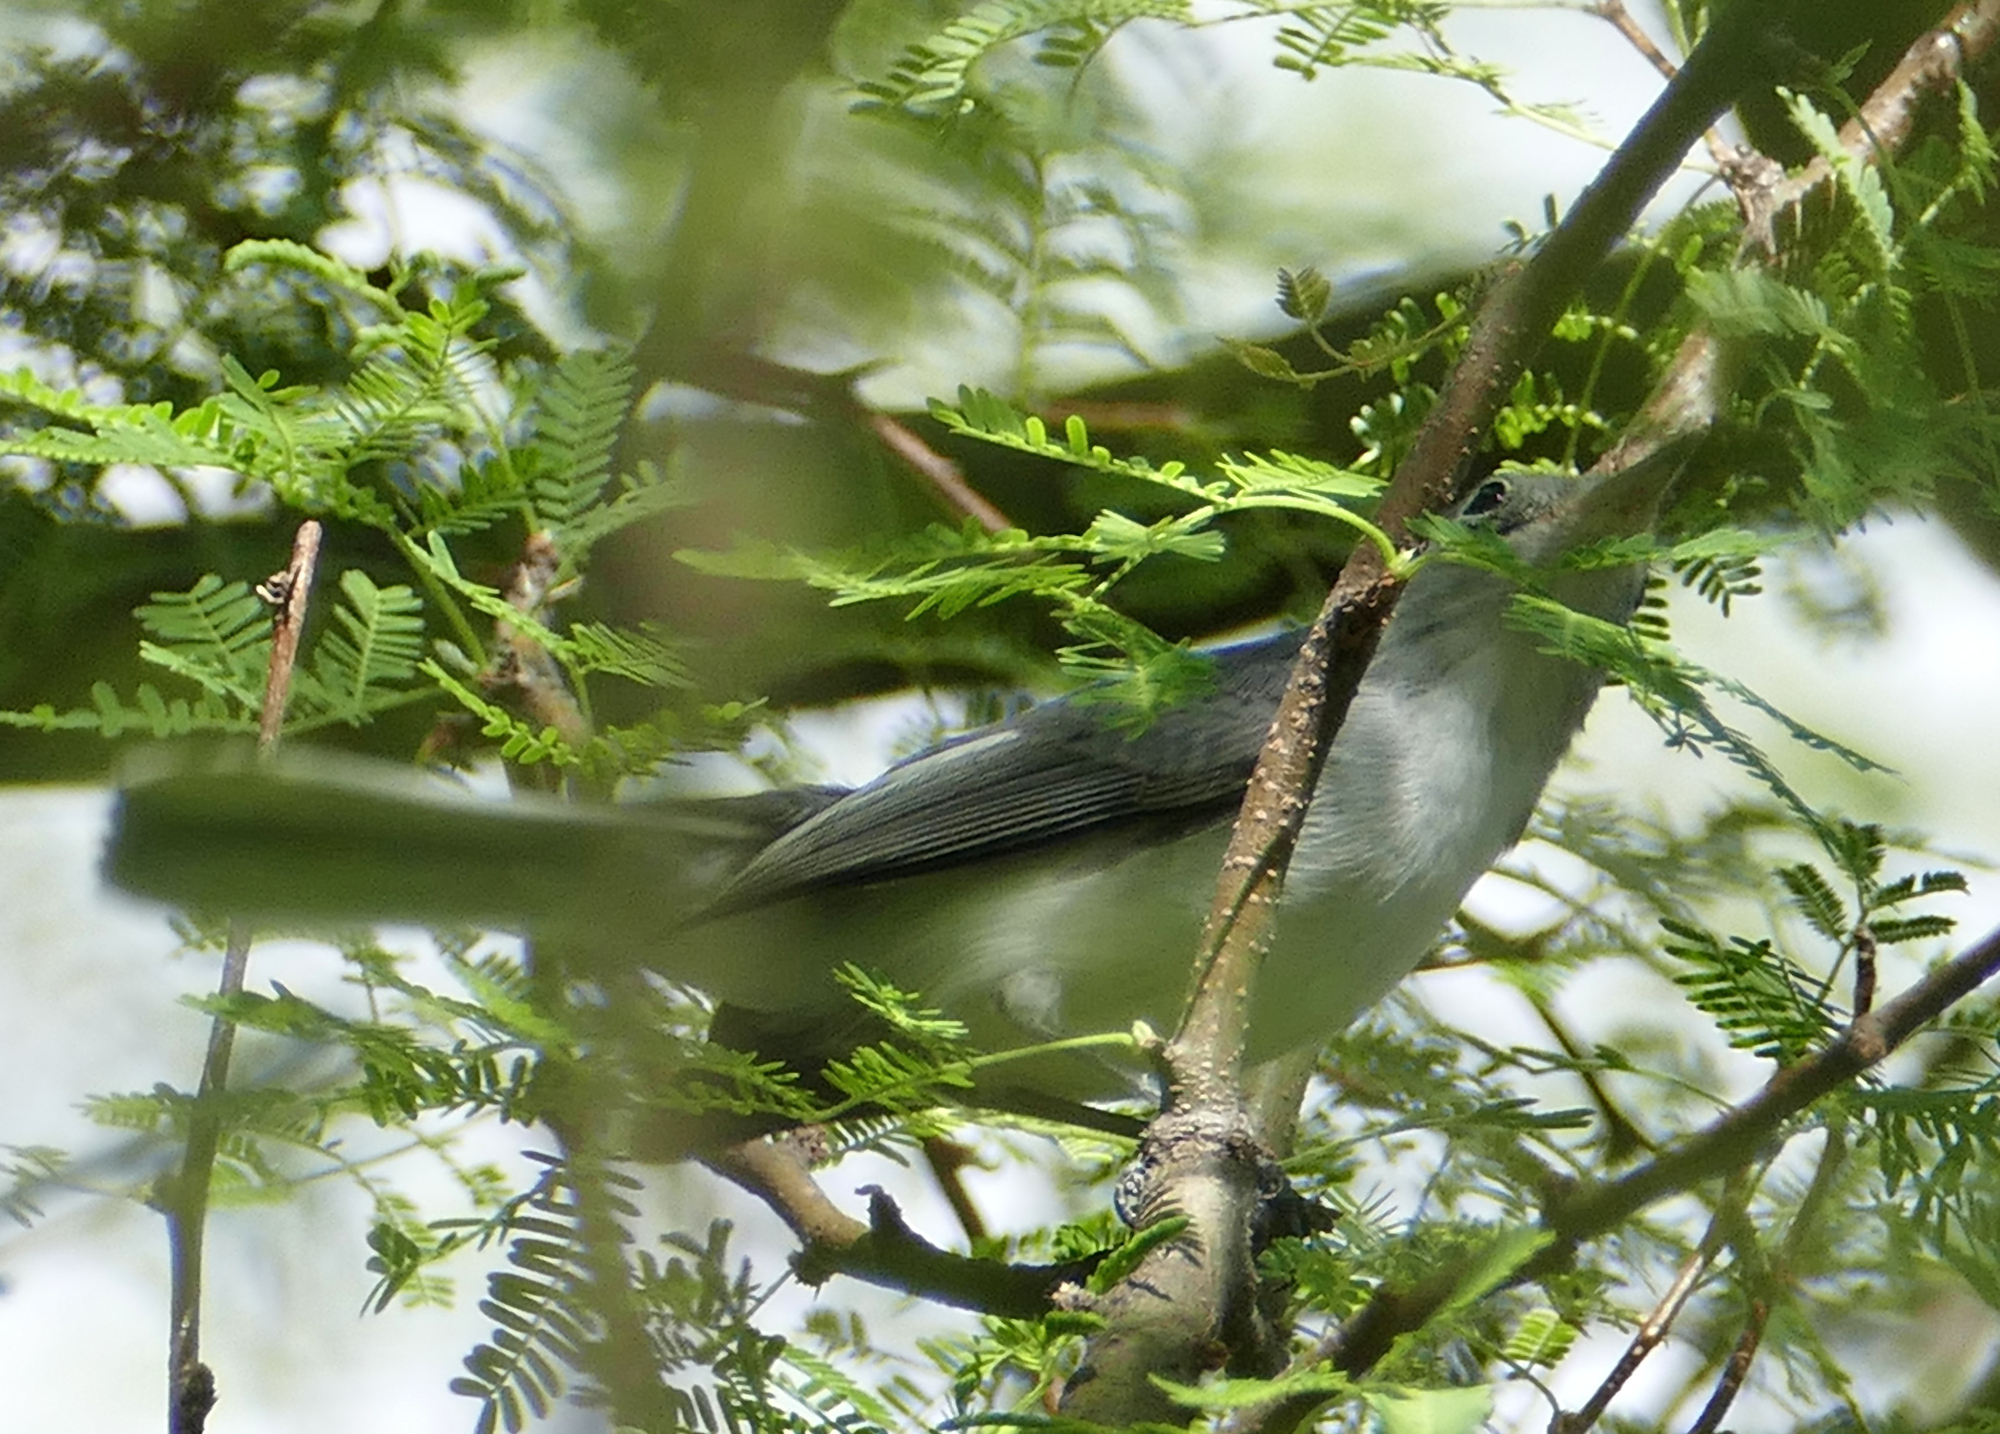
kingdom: Animalia
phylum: Chordata
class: Aves
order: Passeriformes
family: Polioptilidae
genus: Polioptila
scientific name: Polioptila caerulea
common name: Blue-gray gnatcatcher
